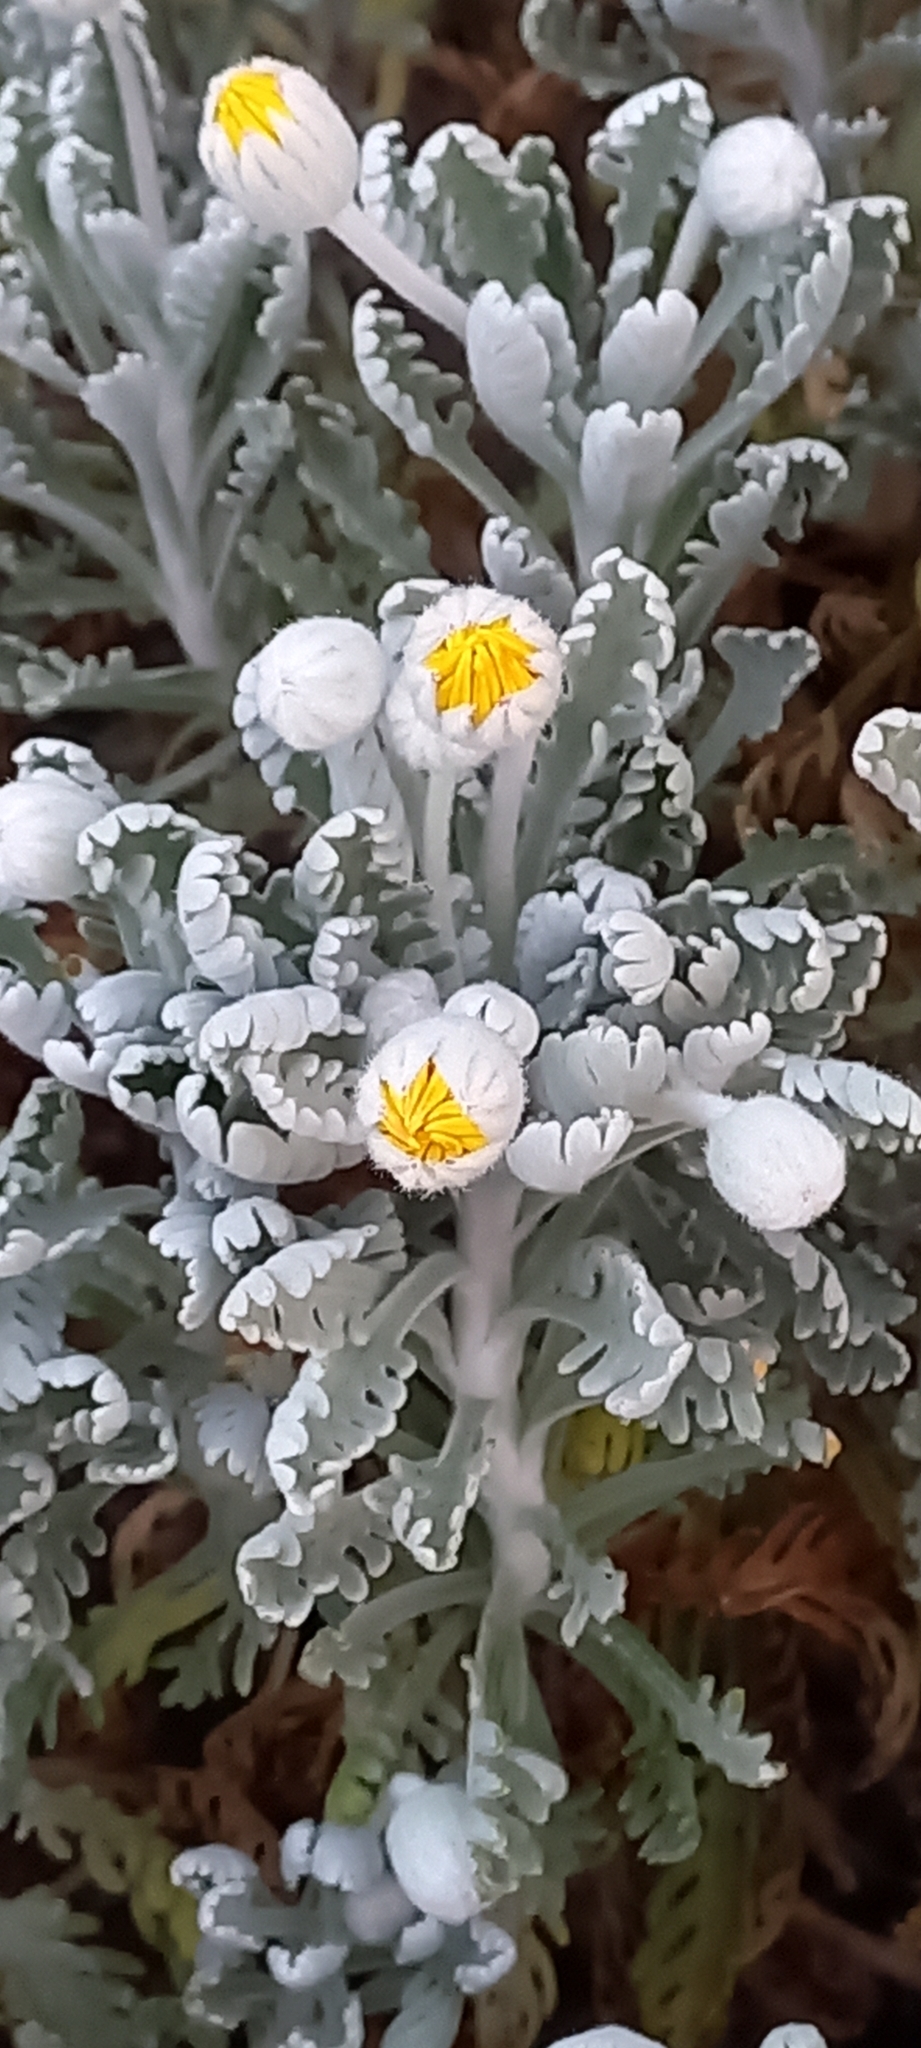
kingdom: Plantae
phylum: Tracheophyta
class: Magnoliopsida
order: Asterales
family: Asteraceae
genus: Euryops
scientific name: Euryops pectinatus
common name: Gray-leaf euryops
